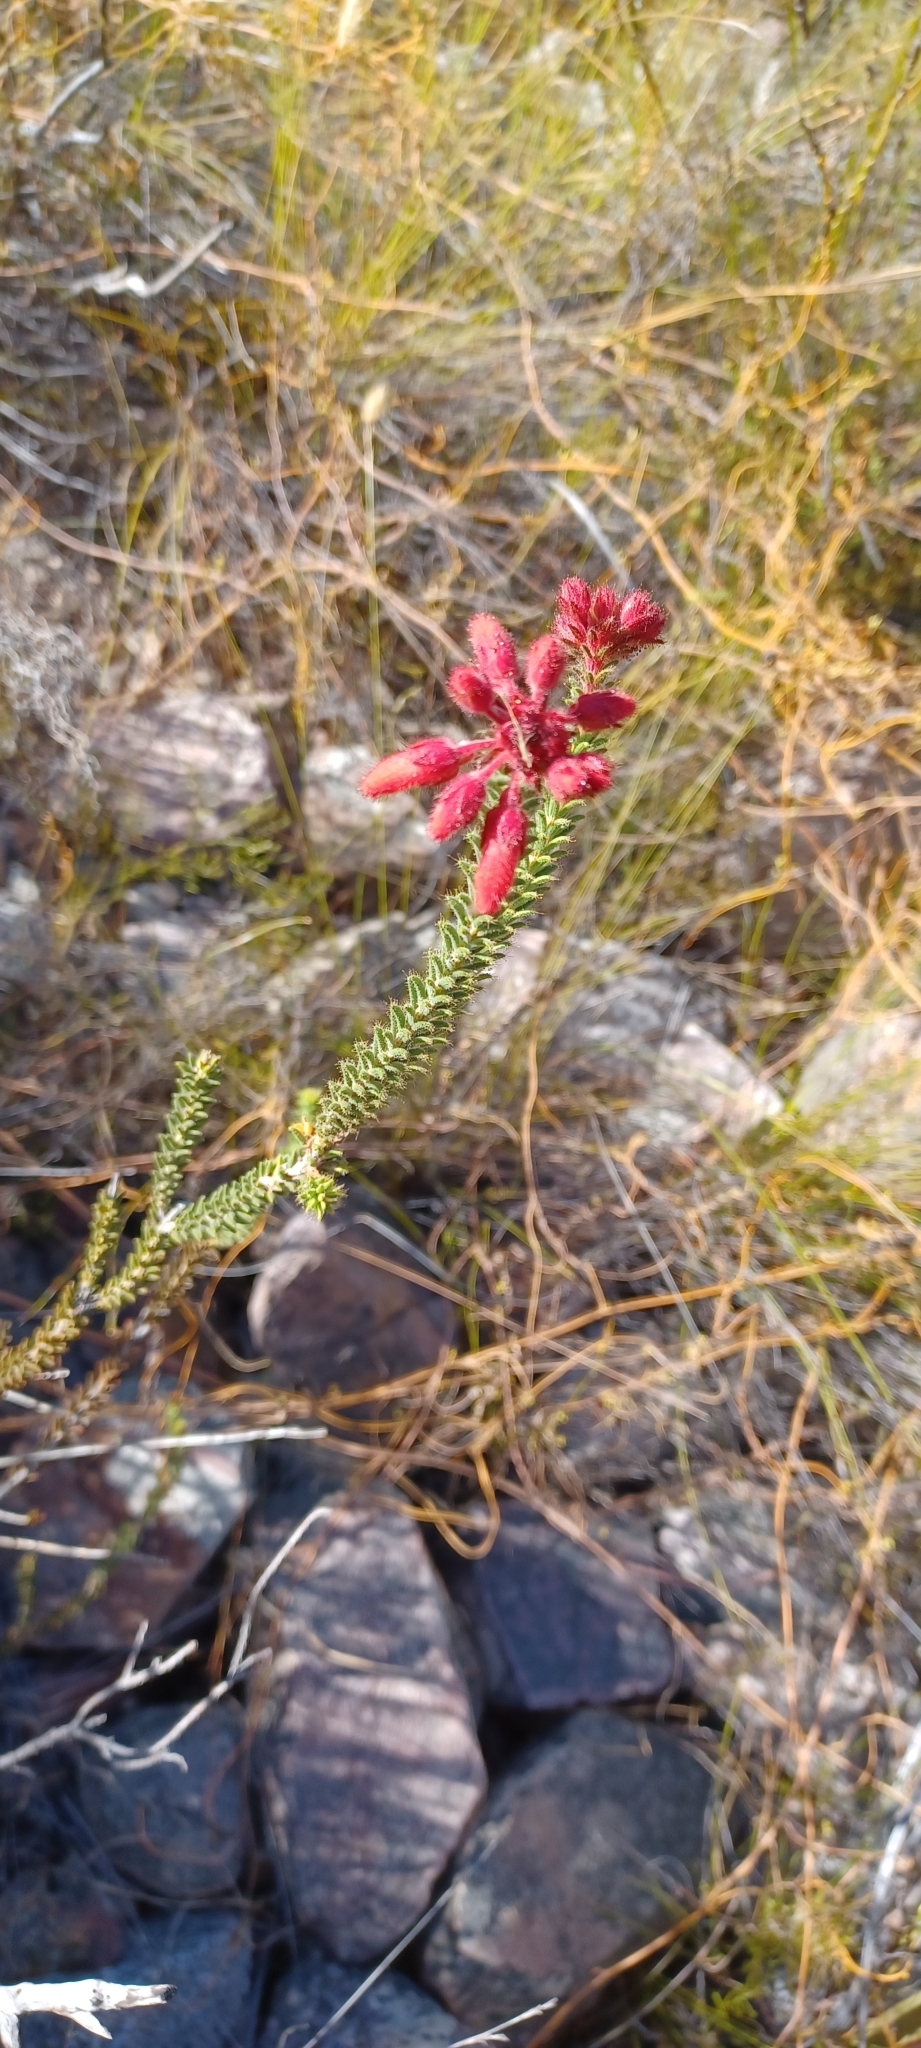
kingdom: Plantae
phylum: Tracheophyta
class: Magnoliopsida
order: Ericales
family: Ericaceae
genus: Erica
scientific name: Erica cerinthoides
